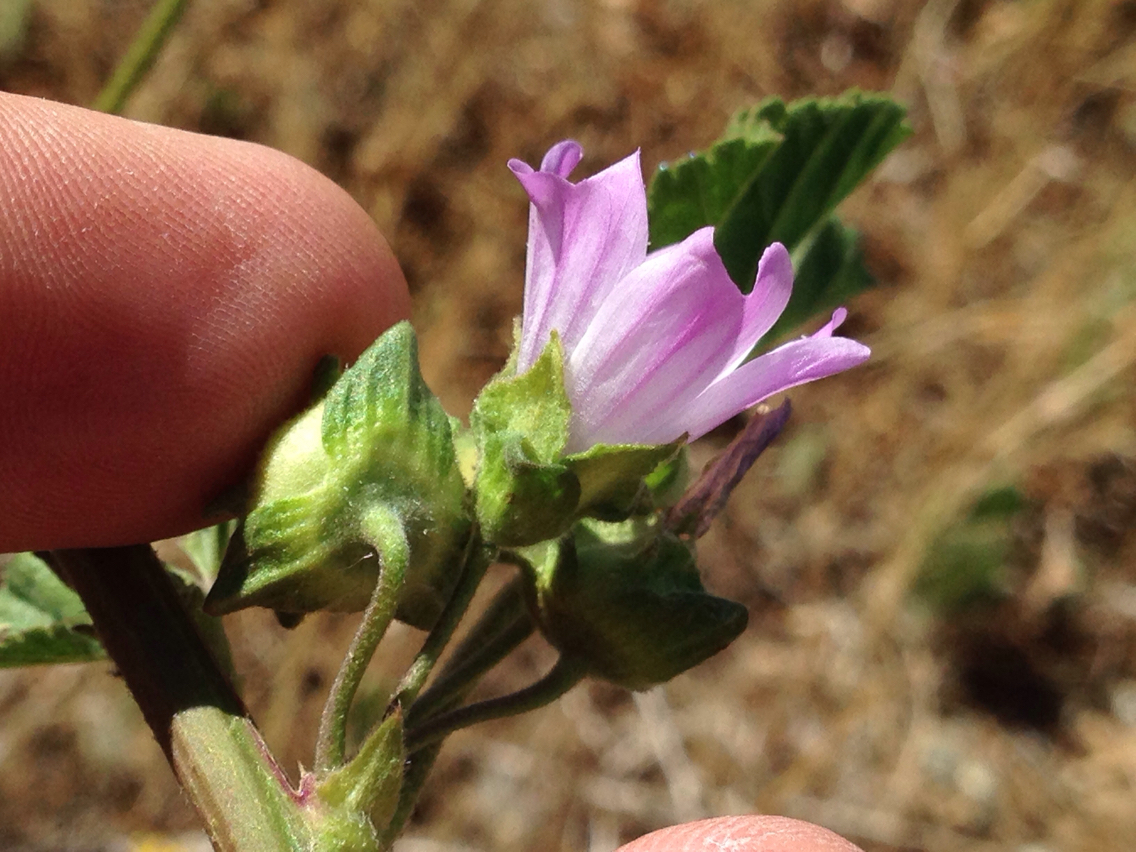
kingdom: Plantae
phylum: Tracheophyta
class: Magnoliopsida
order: Malvales
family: Malvaceae
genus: Malva
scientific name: Malva multiflora
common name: Cheeseweed
